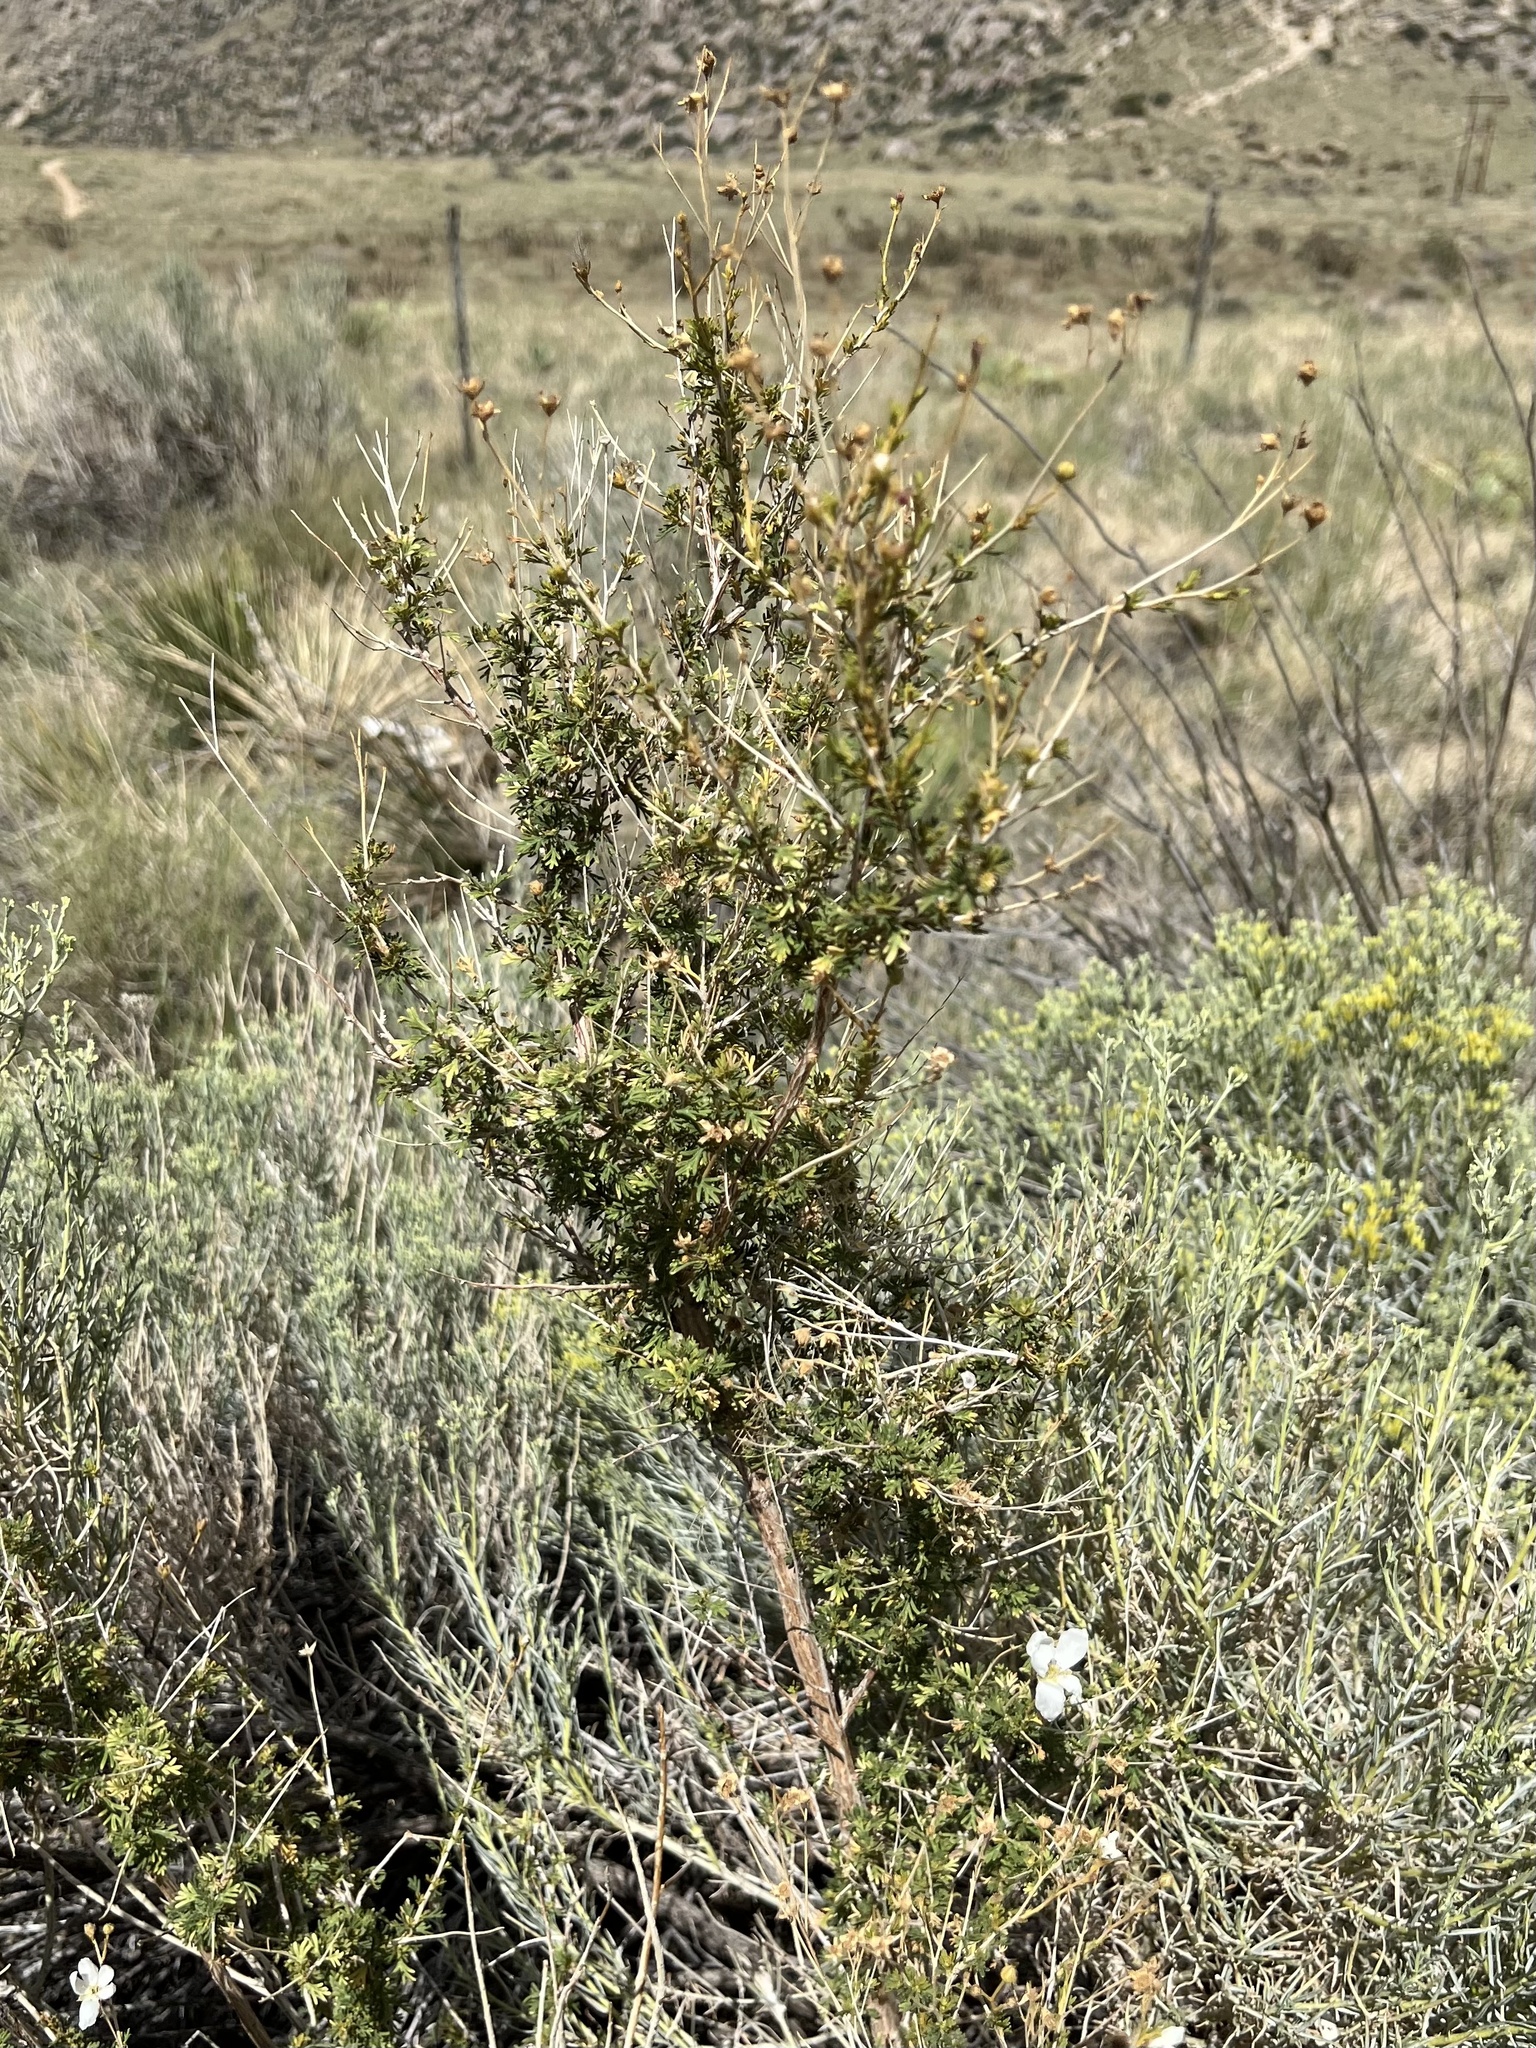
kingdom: Plantae
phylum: Tracheophyta
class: Magnoliopsida
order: Rosales
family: Rosaceae
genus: Fallugia
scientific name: Fallugia paradoxa
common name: Apache-plume
